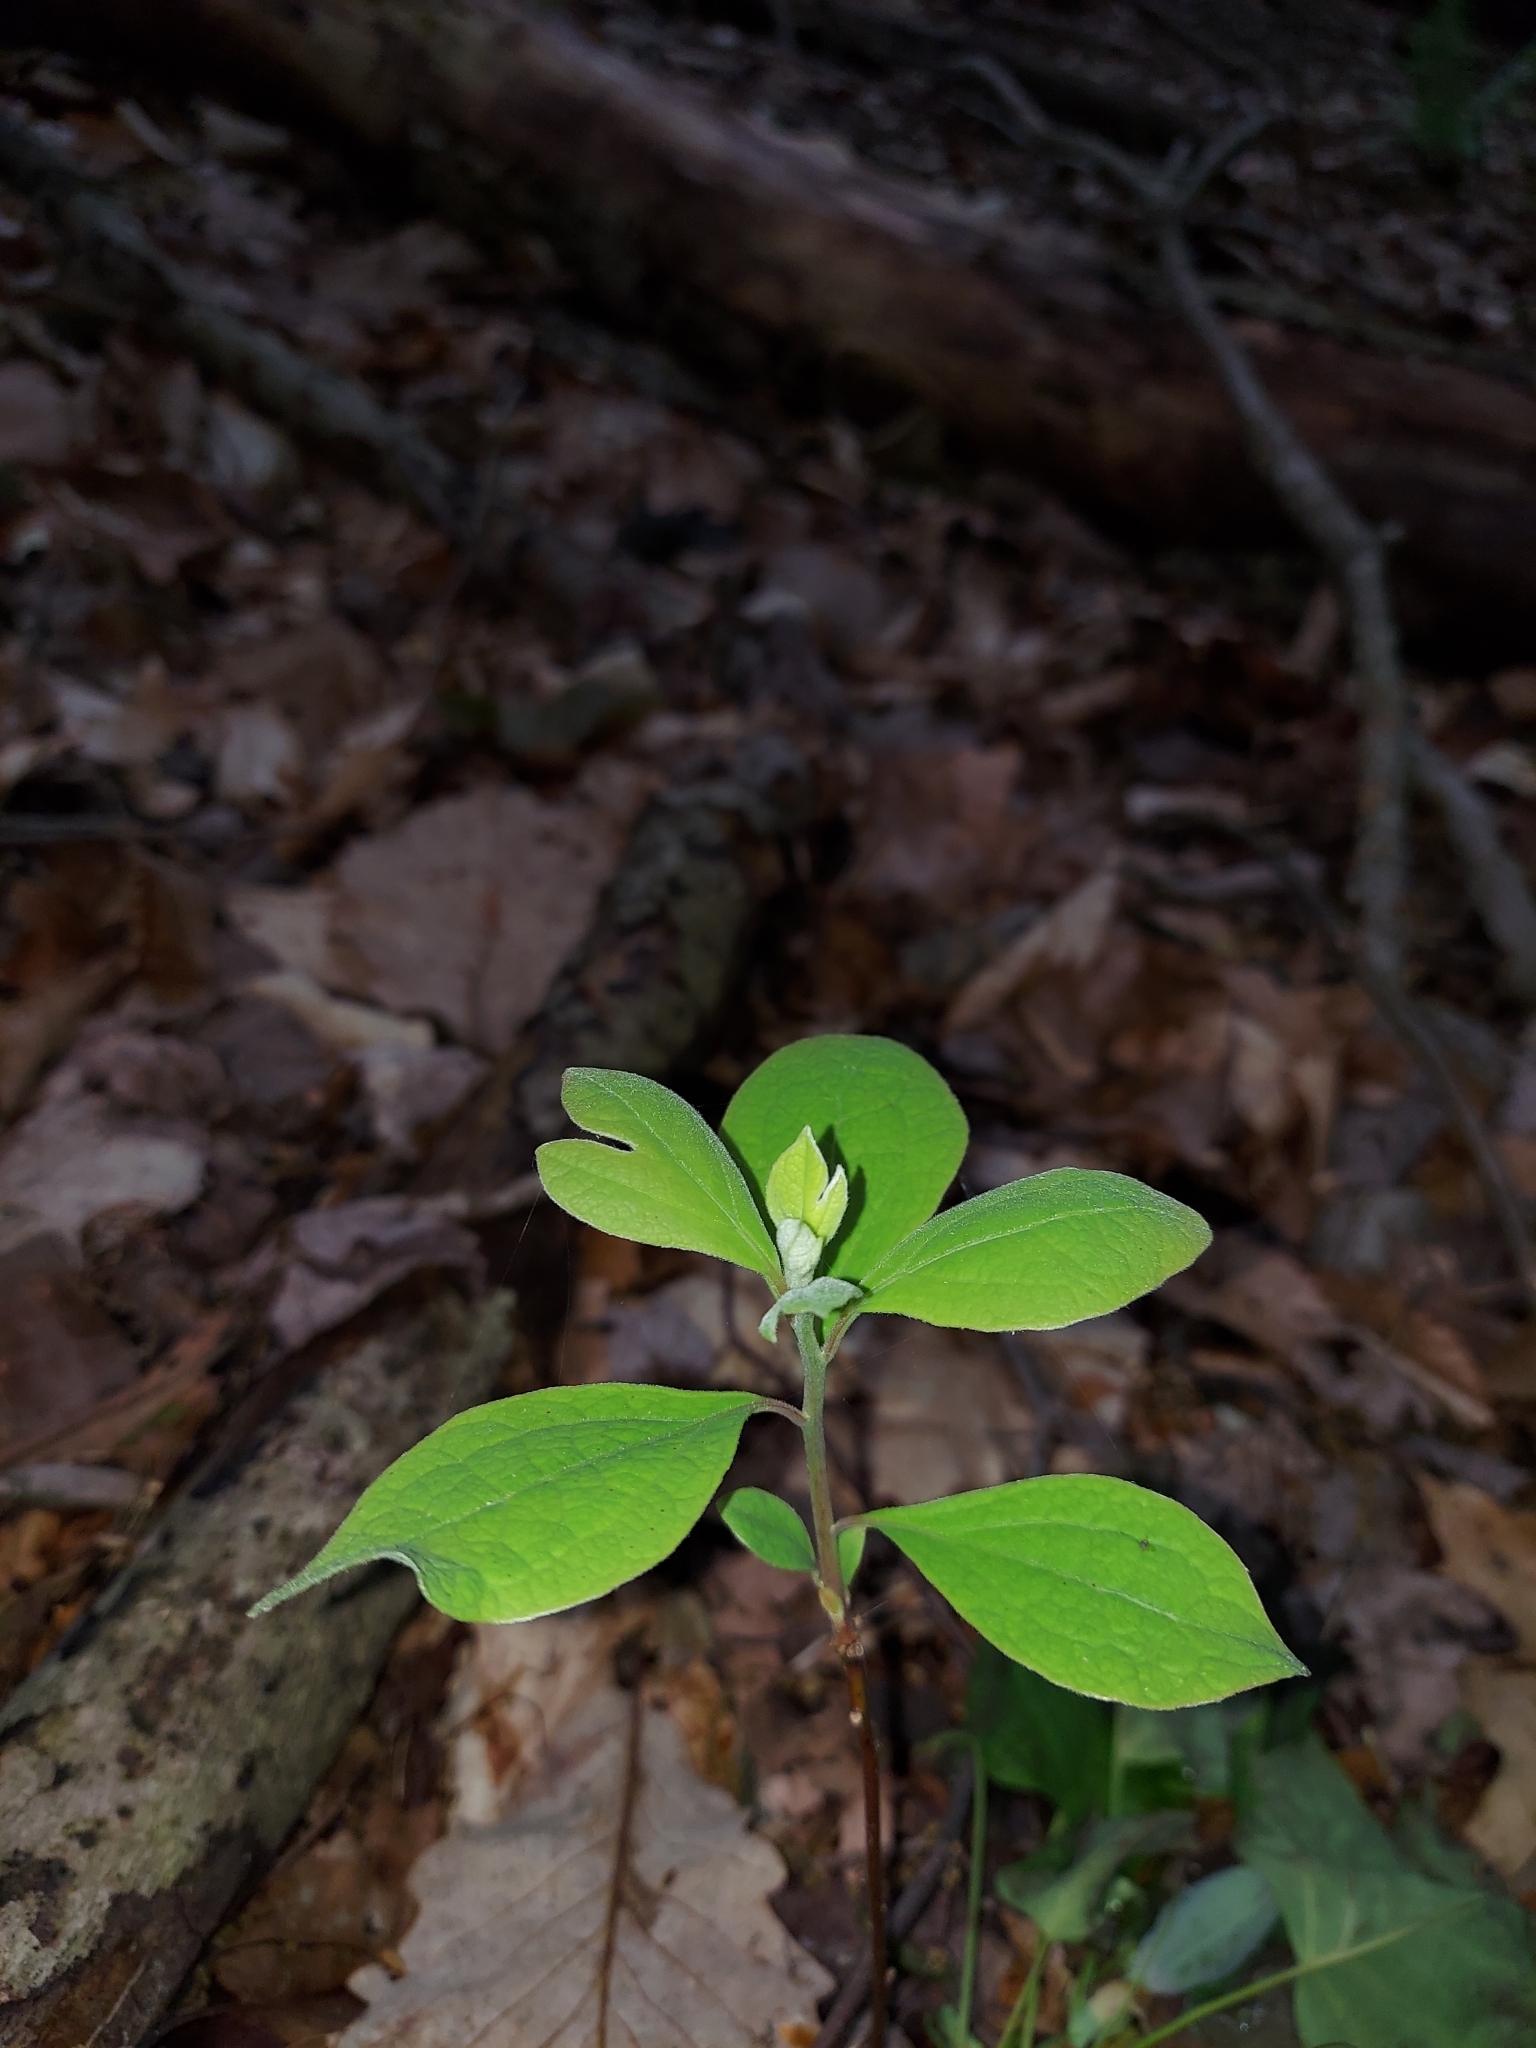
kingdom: Plantae
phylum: Tracheophyta
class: Magnoliopsida
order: Laurales
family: Lauraceae
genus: Sassafras
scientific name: Sassafras albidum
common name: Sassafras
